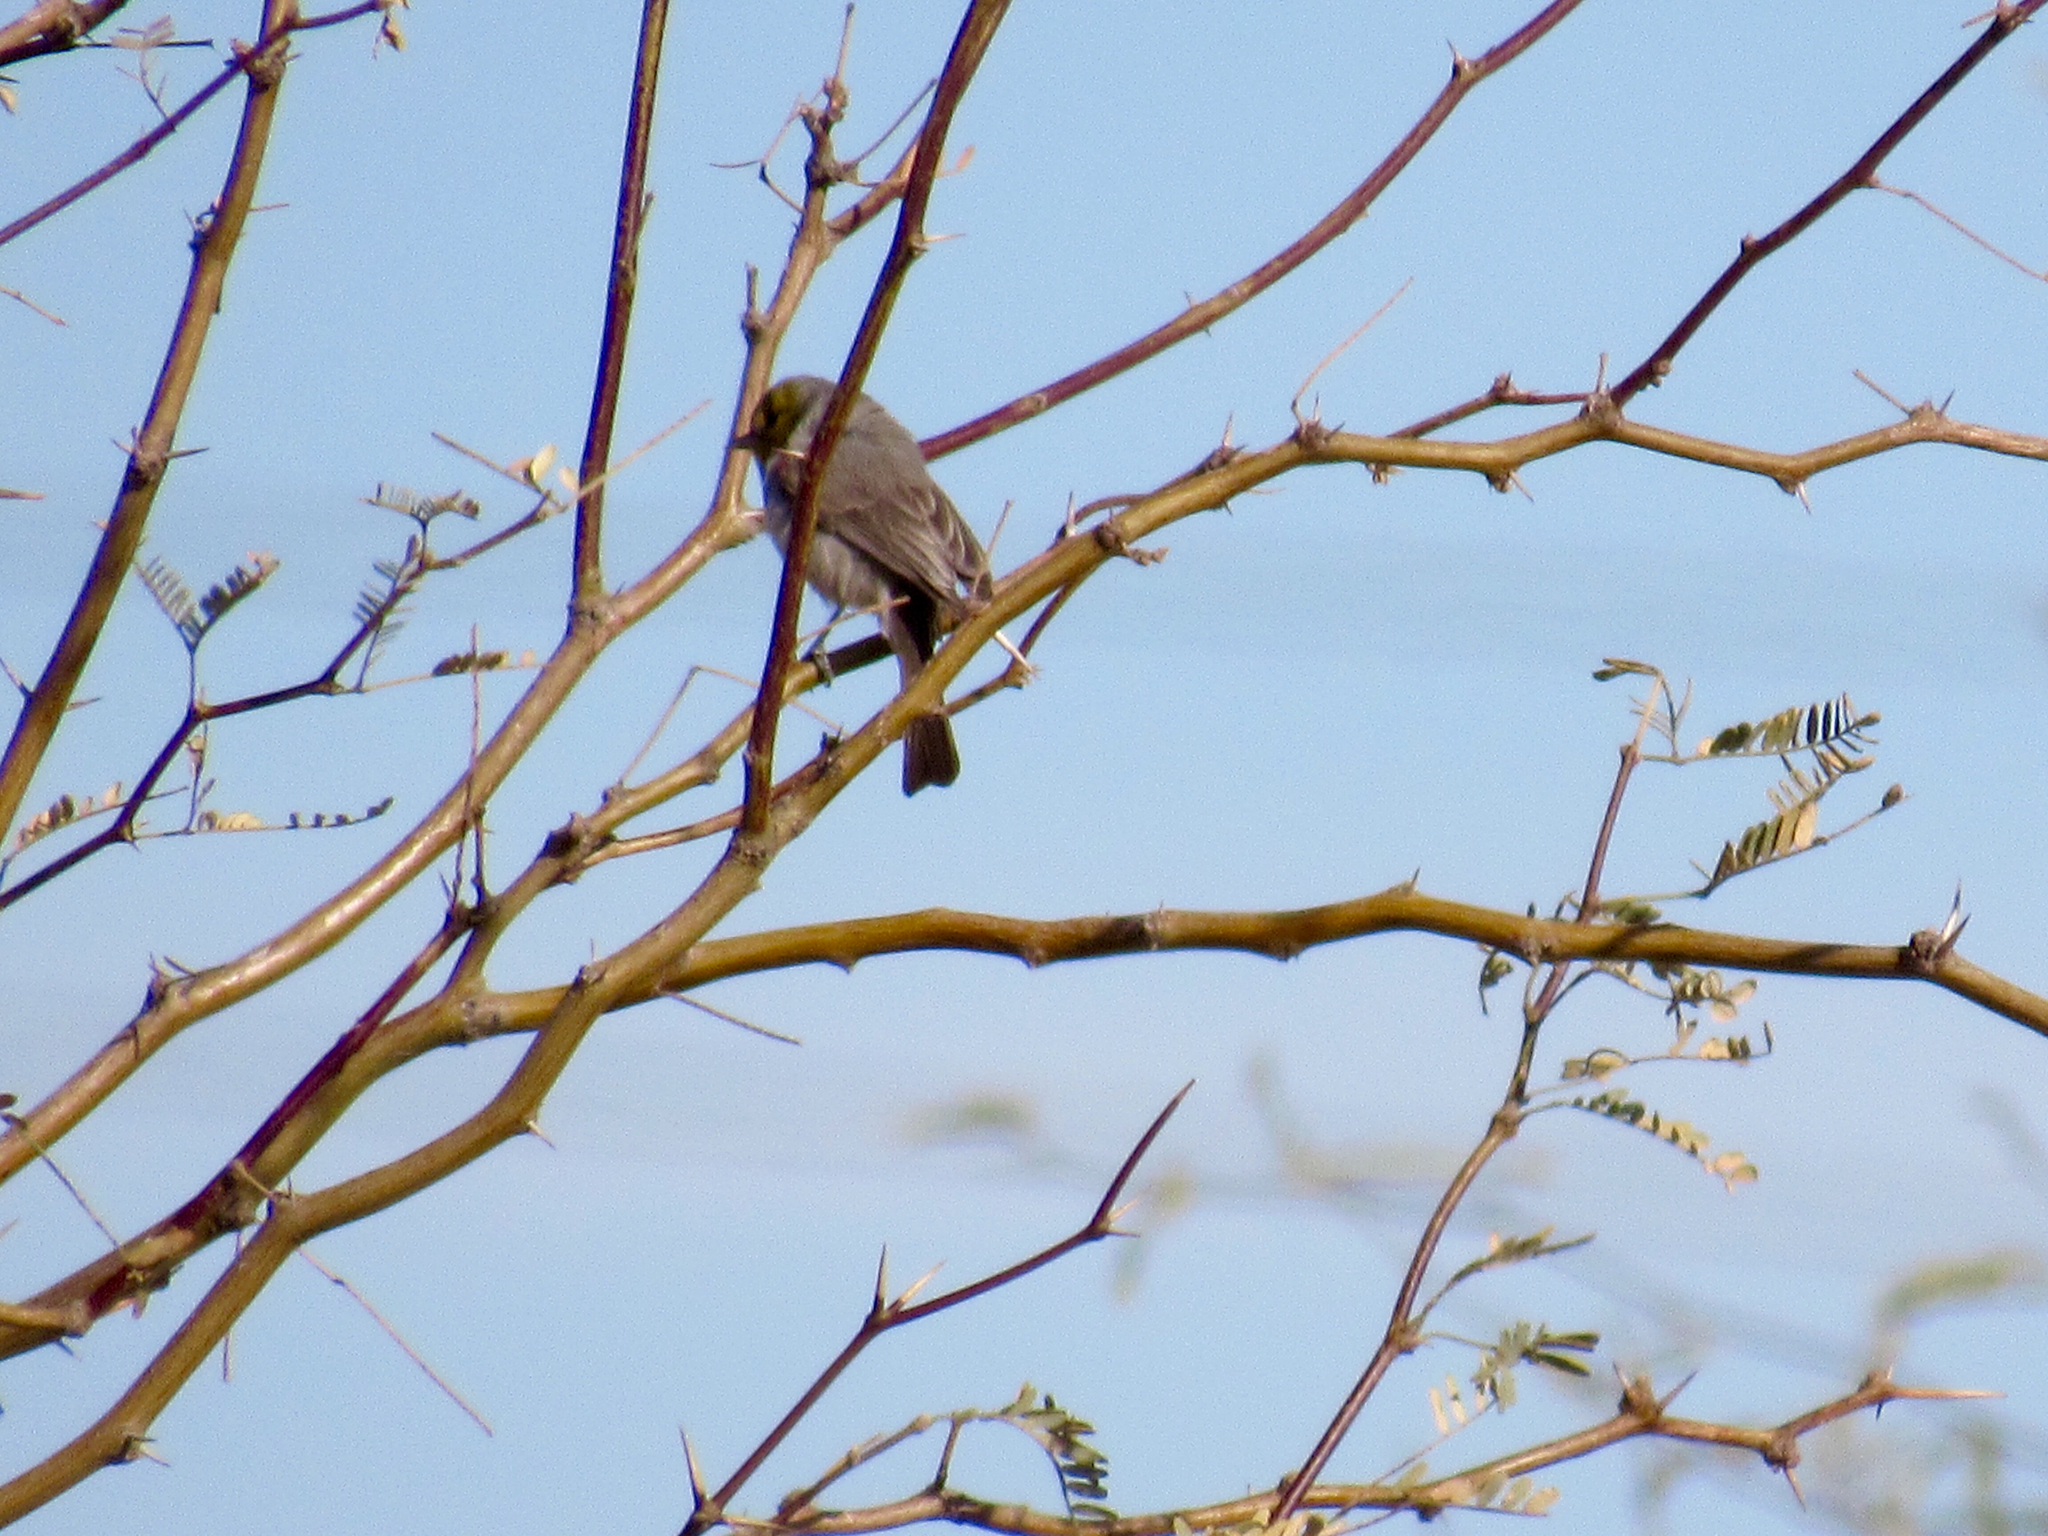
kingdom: Animalia
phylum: Chordata
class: Aves
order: Passeriformes
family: Remizidae
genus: Auriparus
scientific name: Auriparus flaviceps
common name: Verdin
